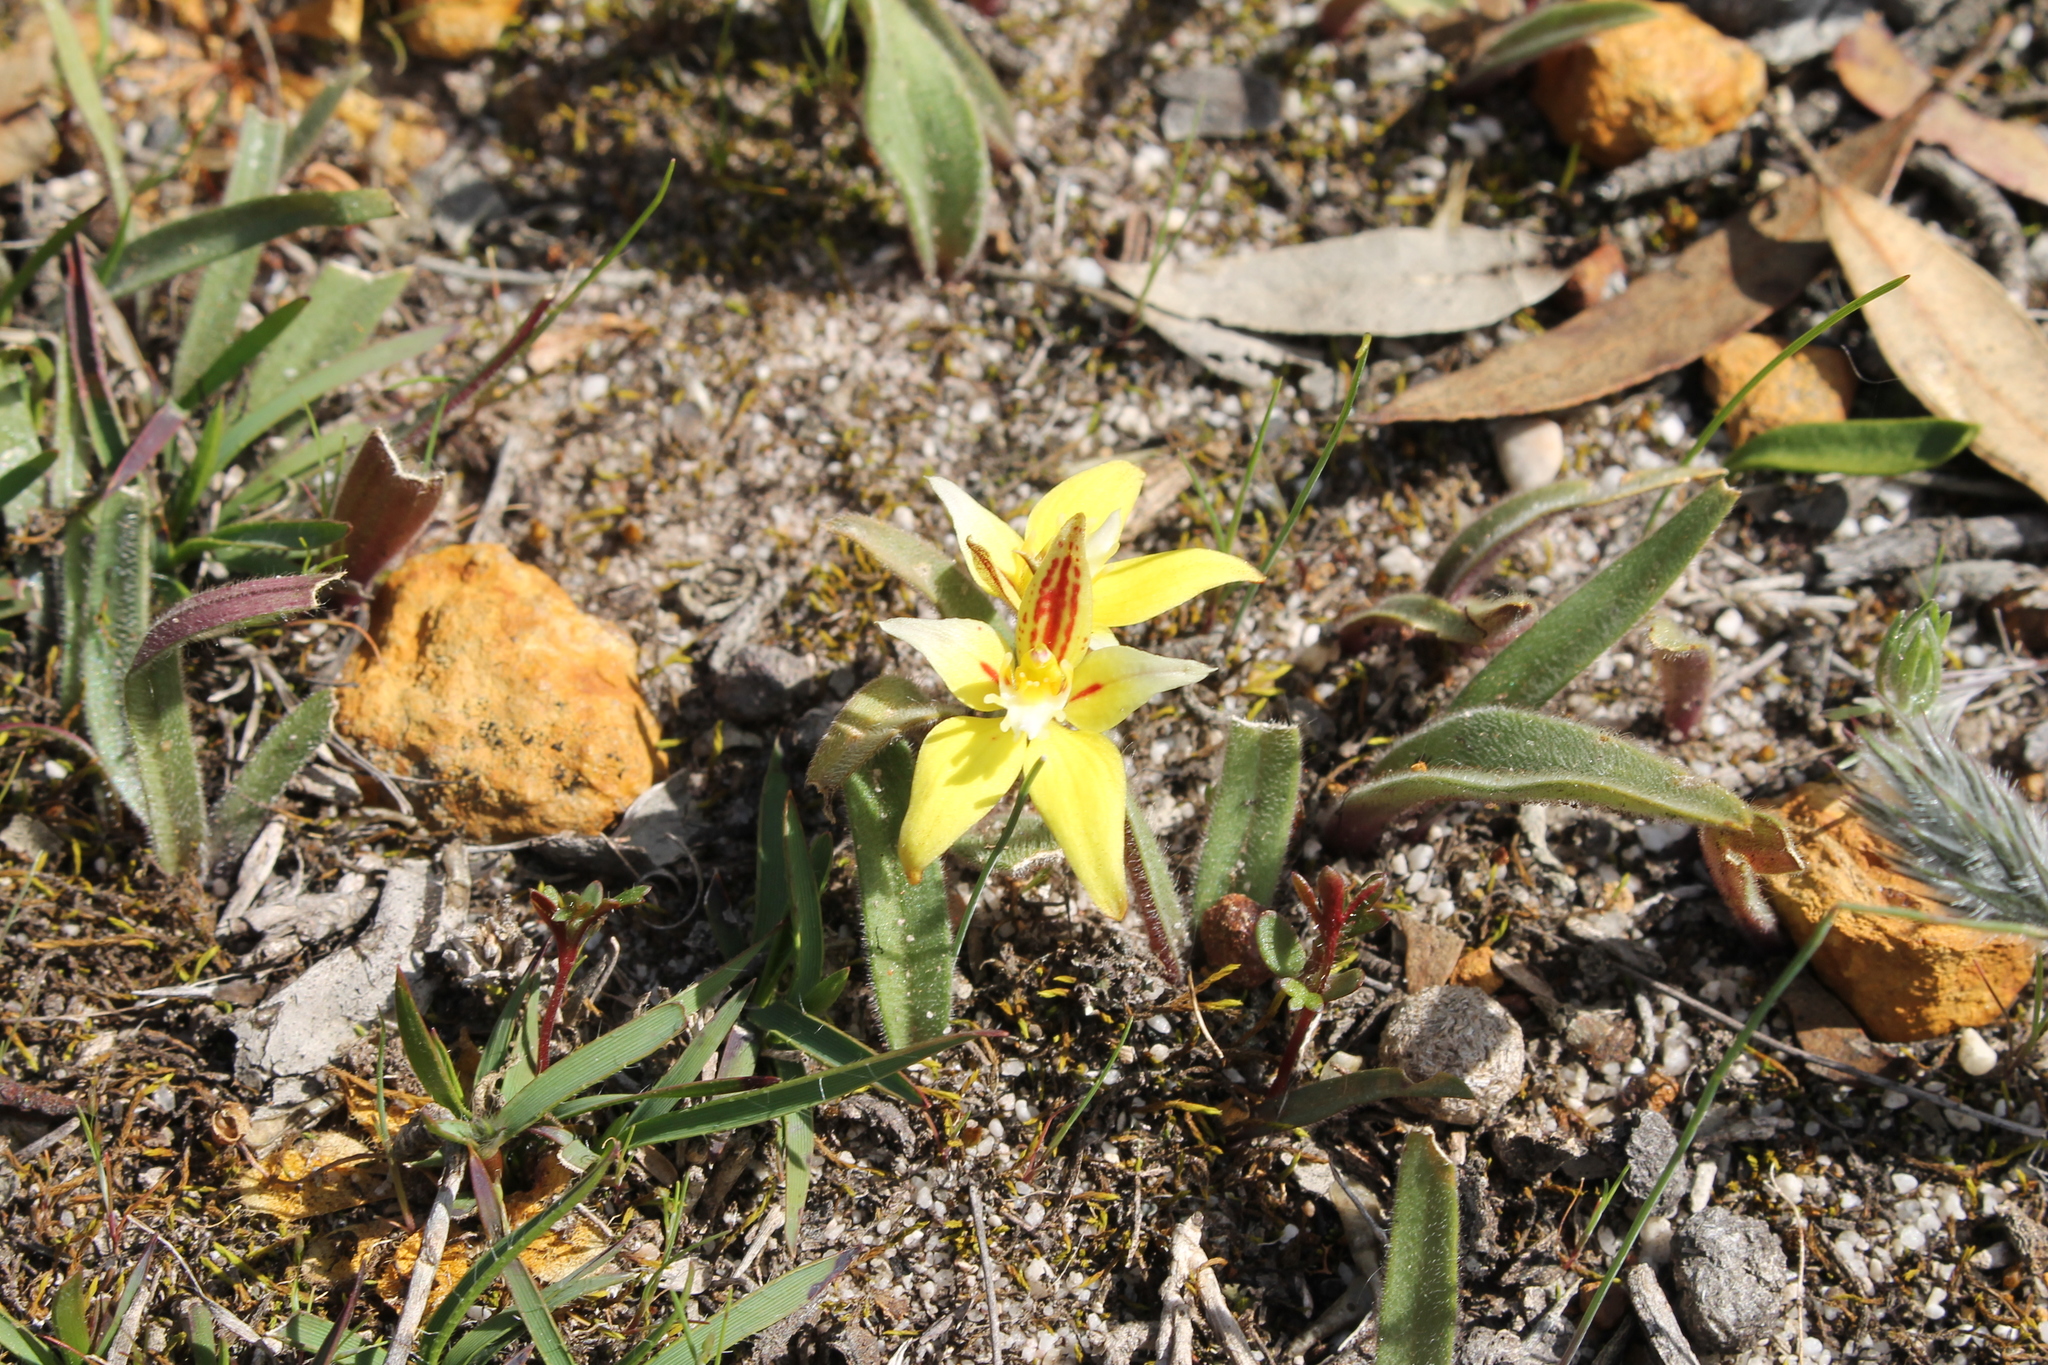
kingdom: Plantae
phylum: Tracheophyta
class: Liliopsida
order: Asparagales
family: Orchidaceae
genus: Caladenia
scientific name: Caladenia flava
